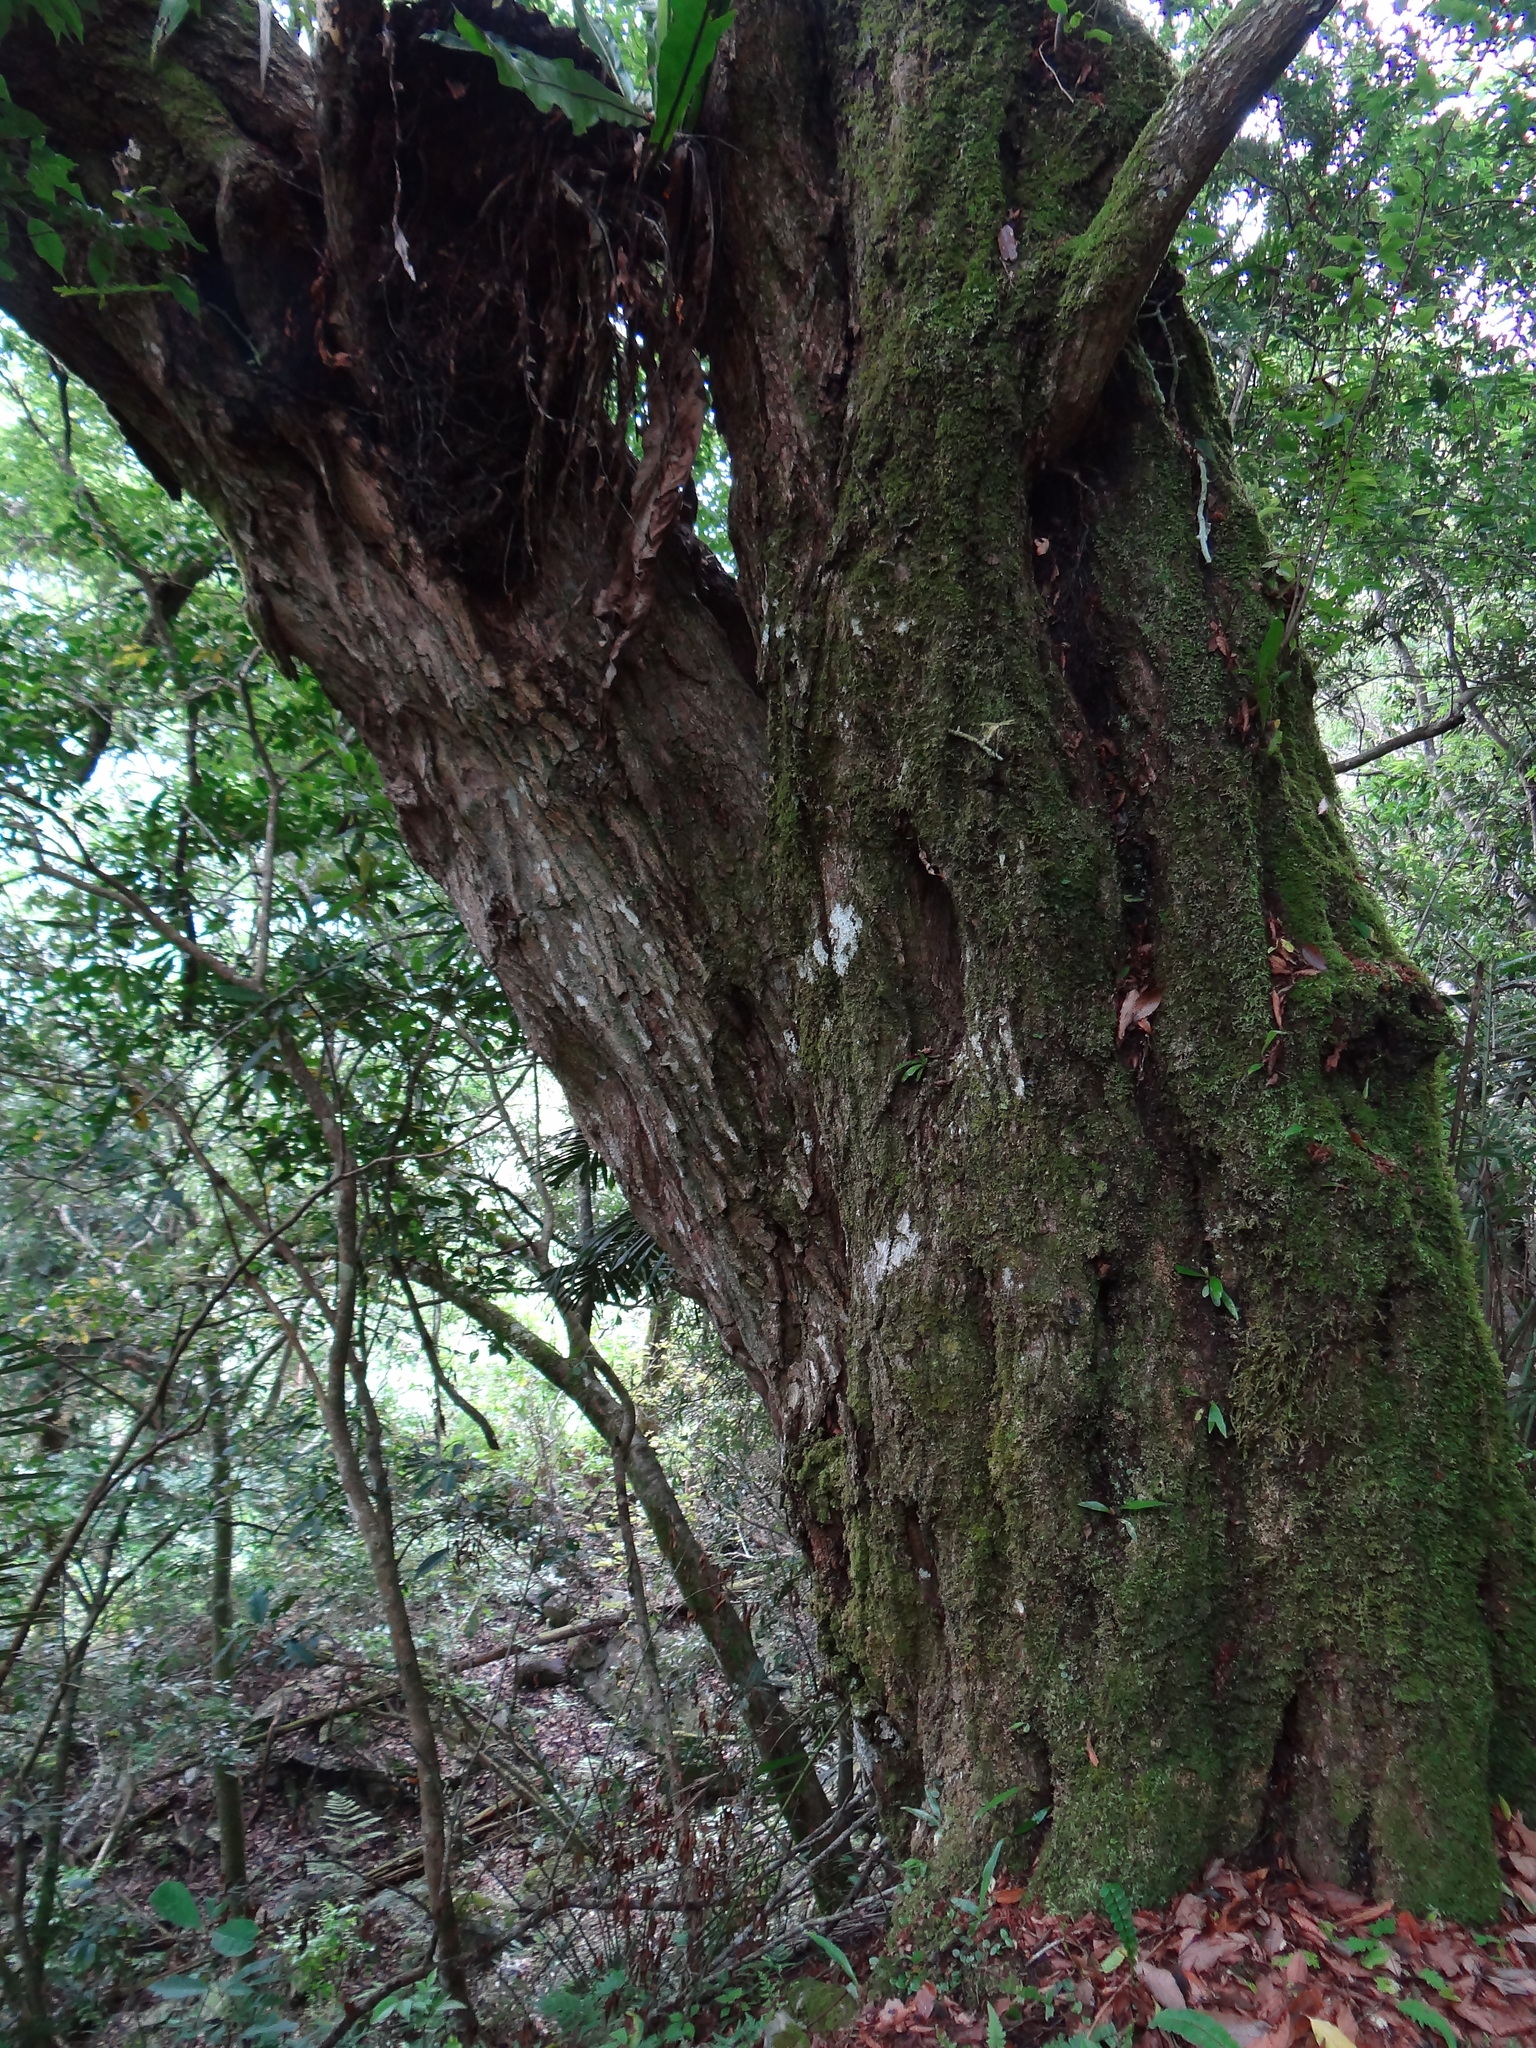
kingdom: Plantae
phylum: Tracheophyta
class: Magnoliopsida
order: Fagales
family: Betulaceae
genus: Carpinus
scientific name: Carpinus kawakamii
